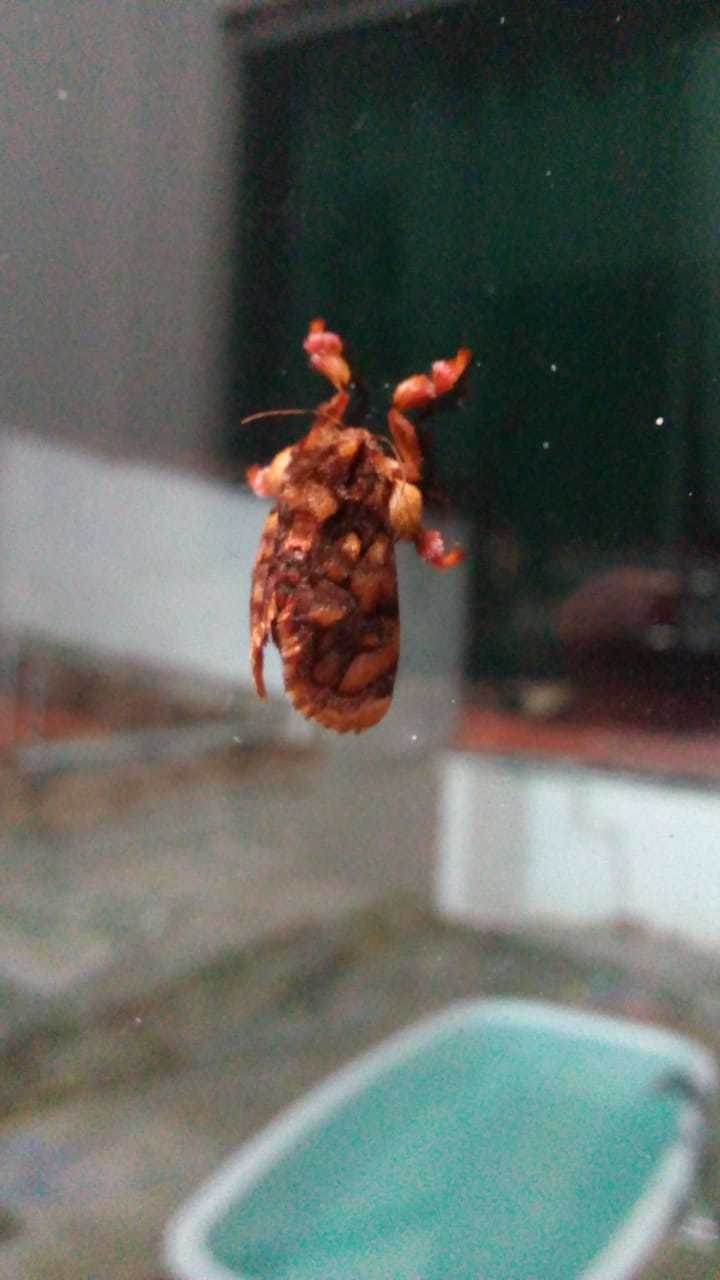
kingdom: Animalia
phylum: Arthropoda
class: Insecta
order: Lepidoptera
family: Limacodidae
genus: Phobetron
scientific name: Phobetron hipparchia
